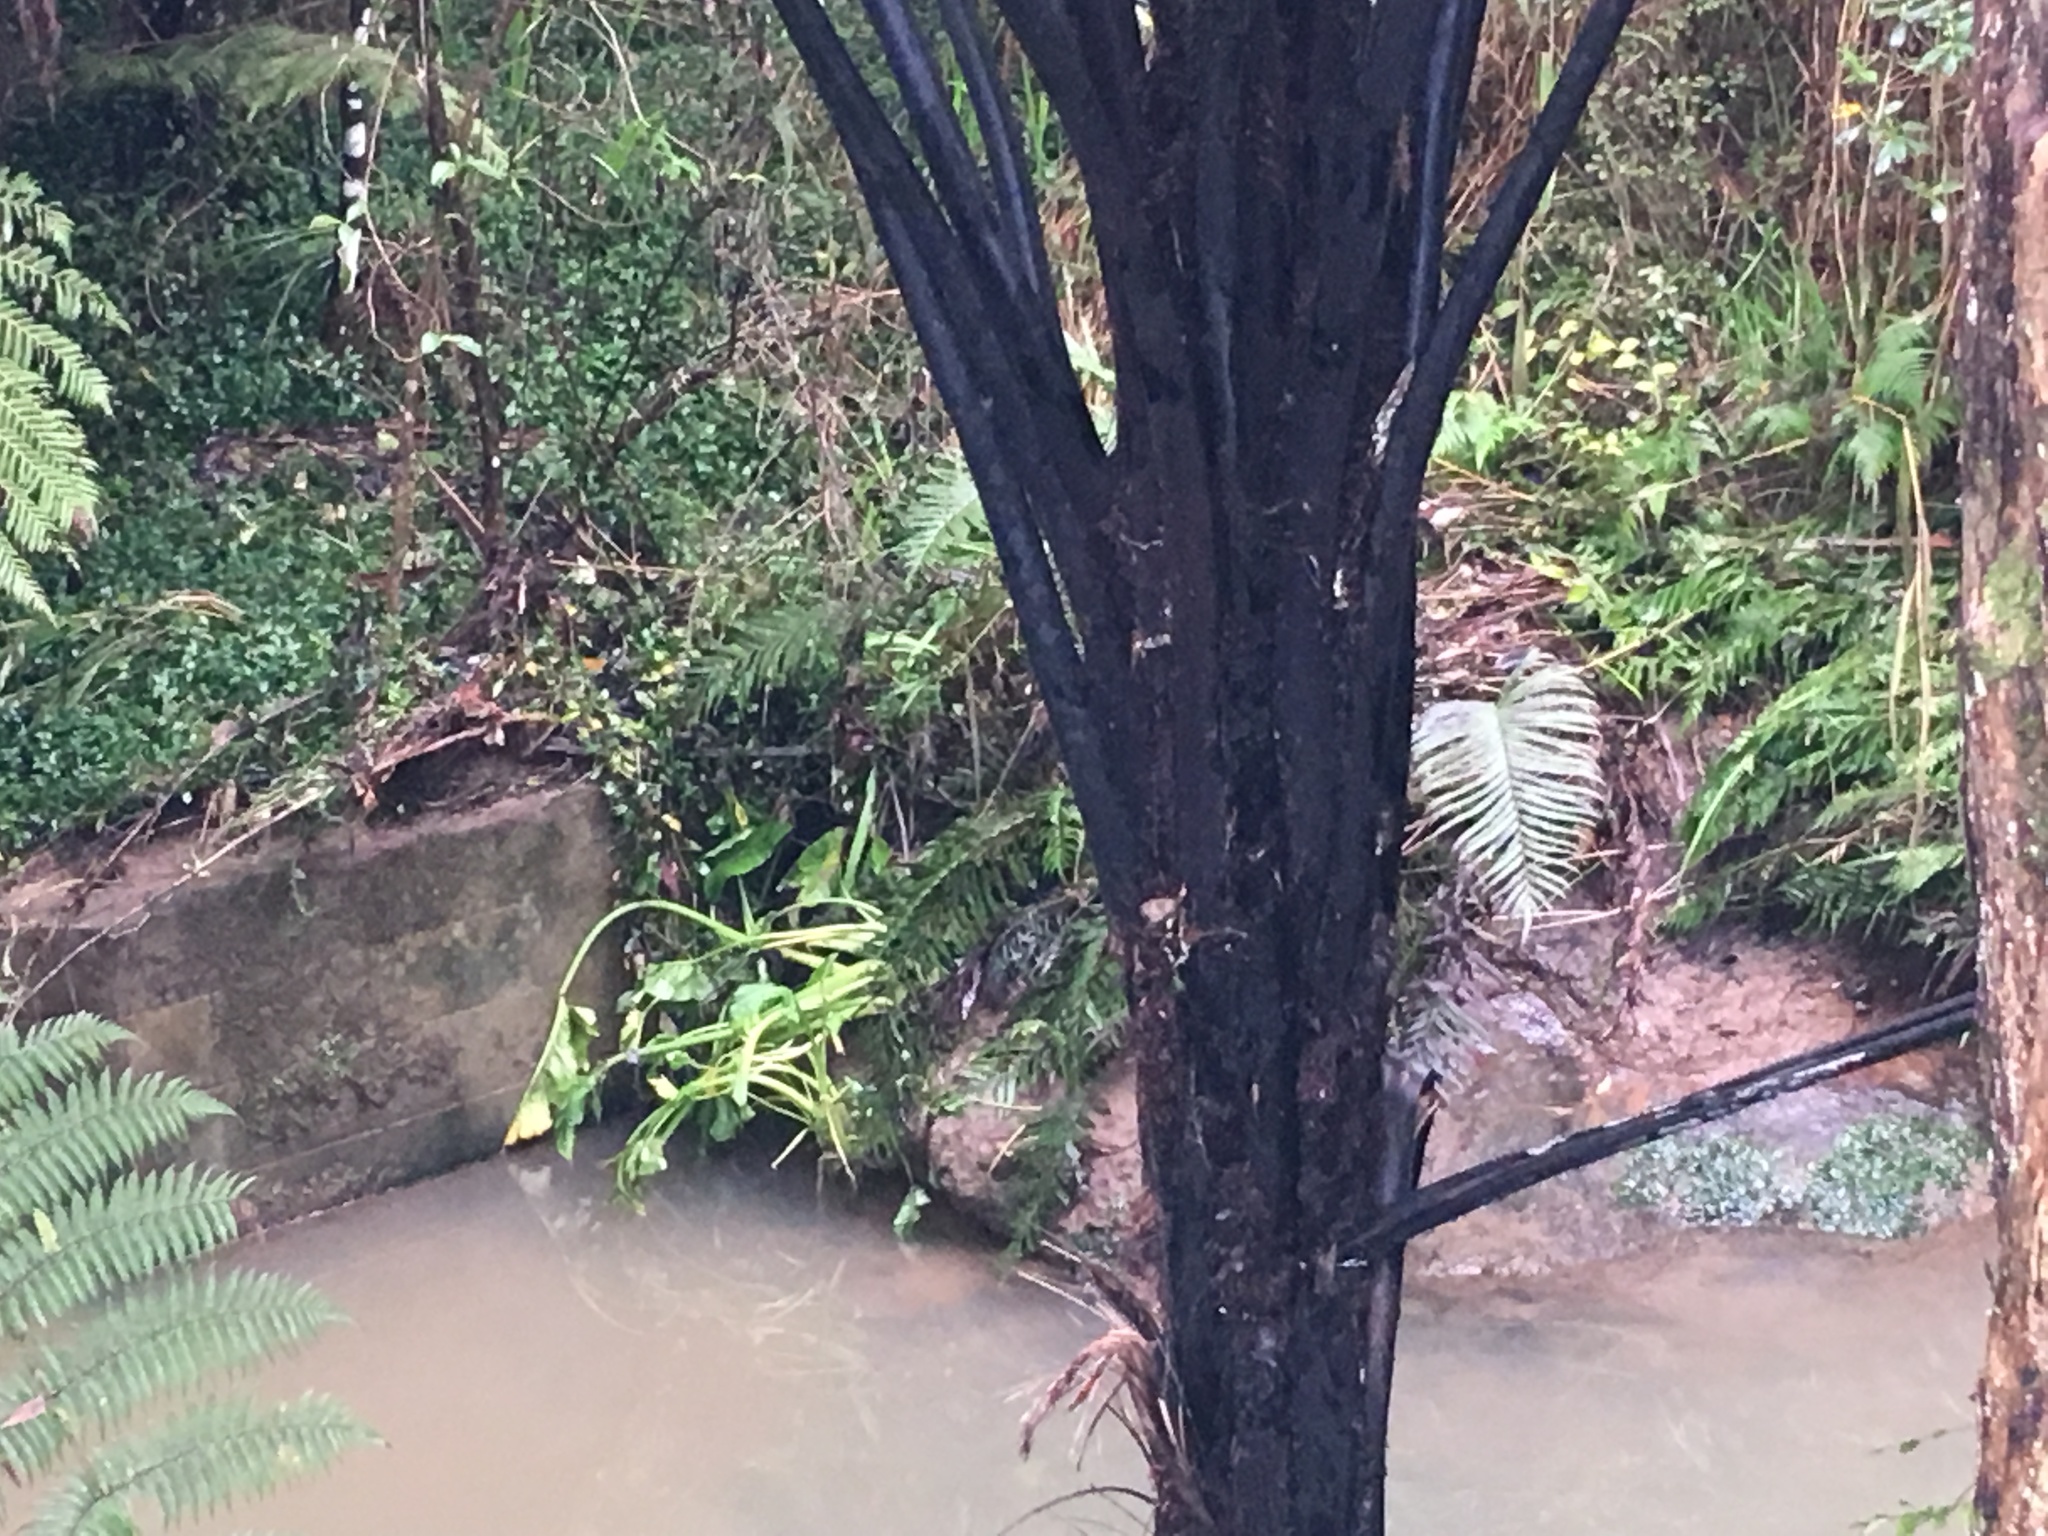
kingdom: Plantae
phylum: Tracheophyta
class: Liliopsida
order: Alismatales
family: Araceae
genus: Zantedeschia
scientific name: Zantedeschia aethiopica
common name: Altar-lily
